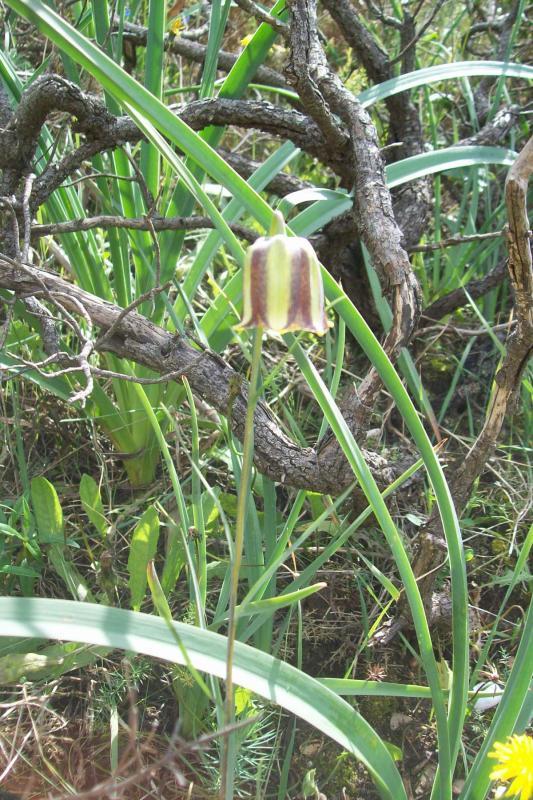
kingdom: Plantae
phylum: Tracheophyta
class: Liliopsida
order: Liliales
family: Liliaceae
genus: Fritillaria
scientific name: Fritillaria lusitanica
